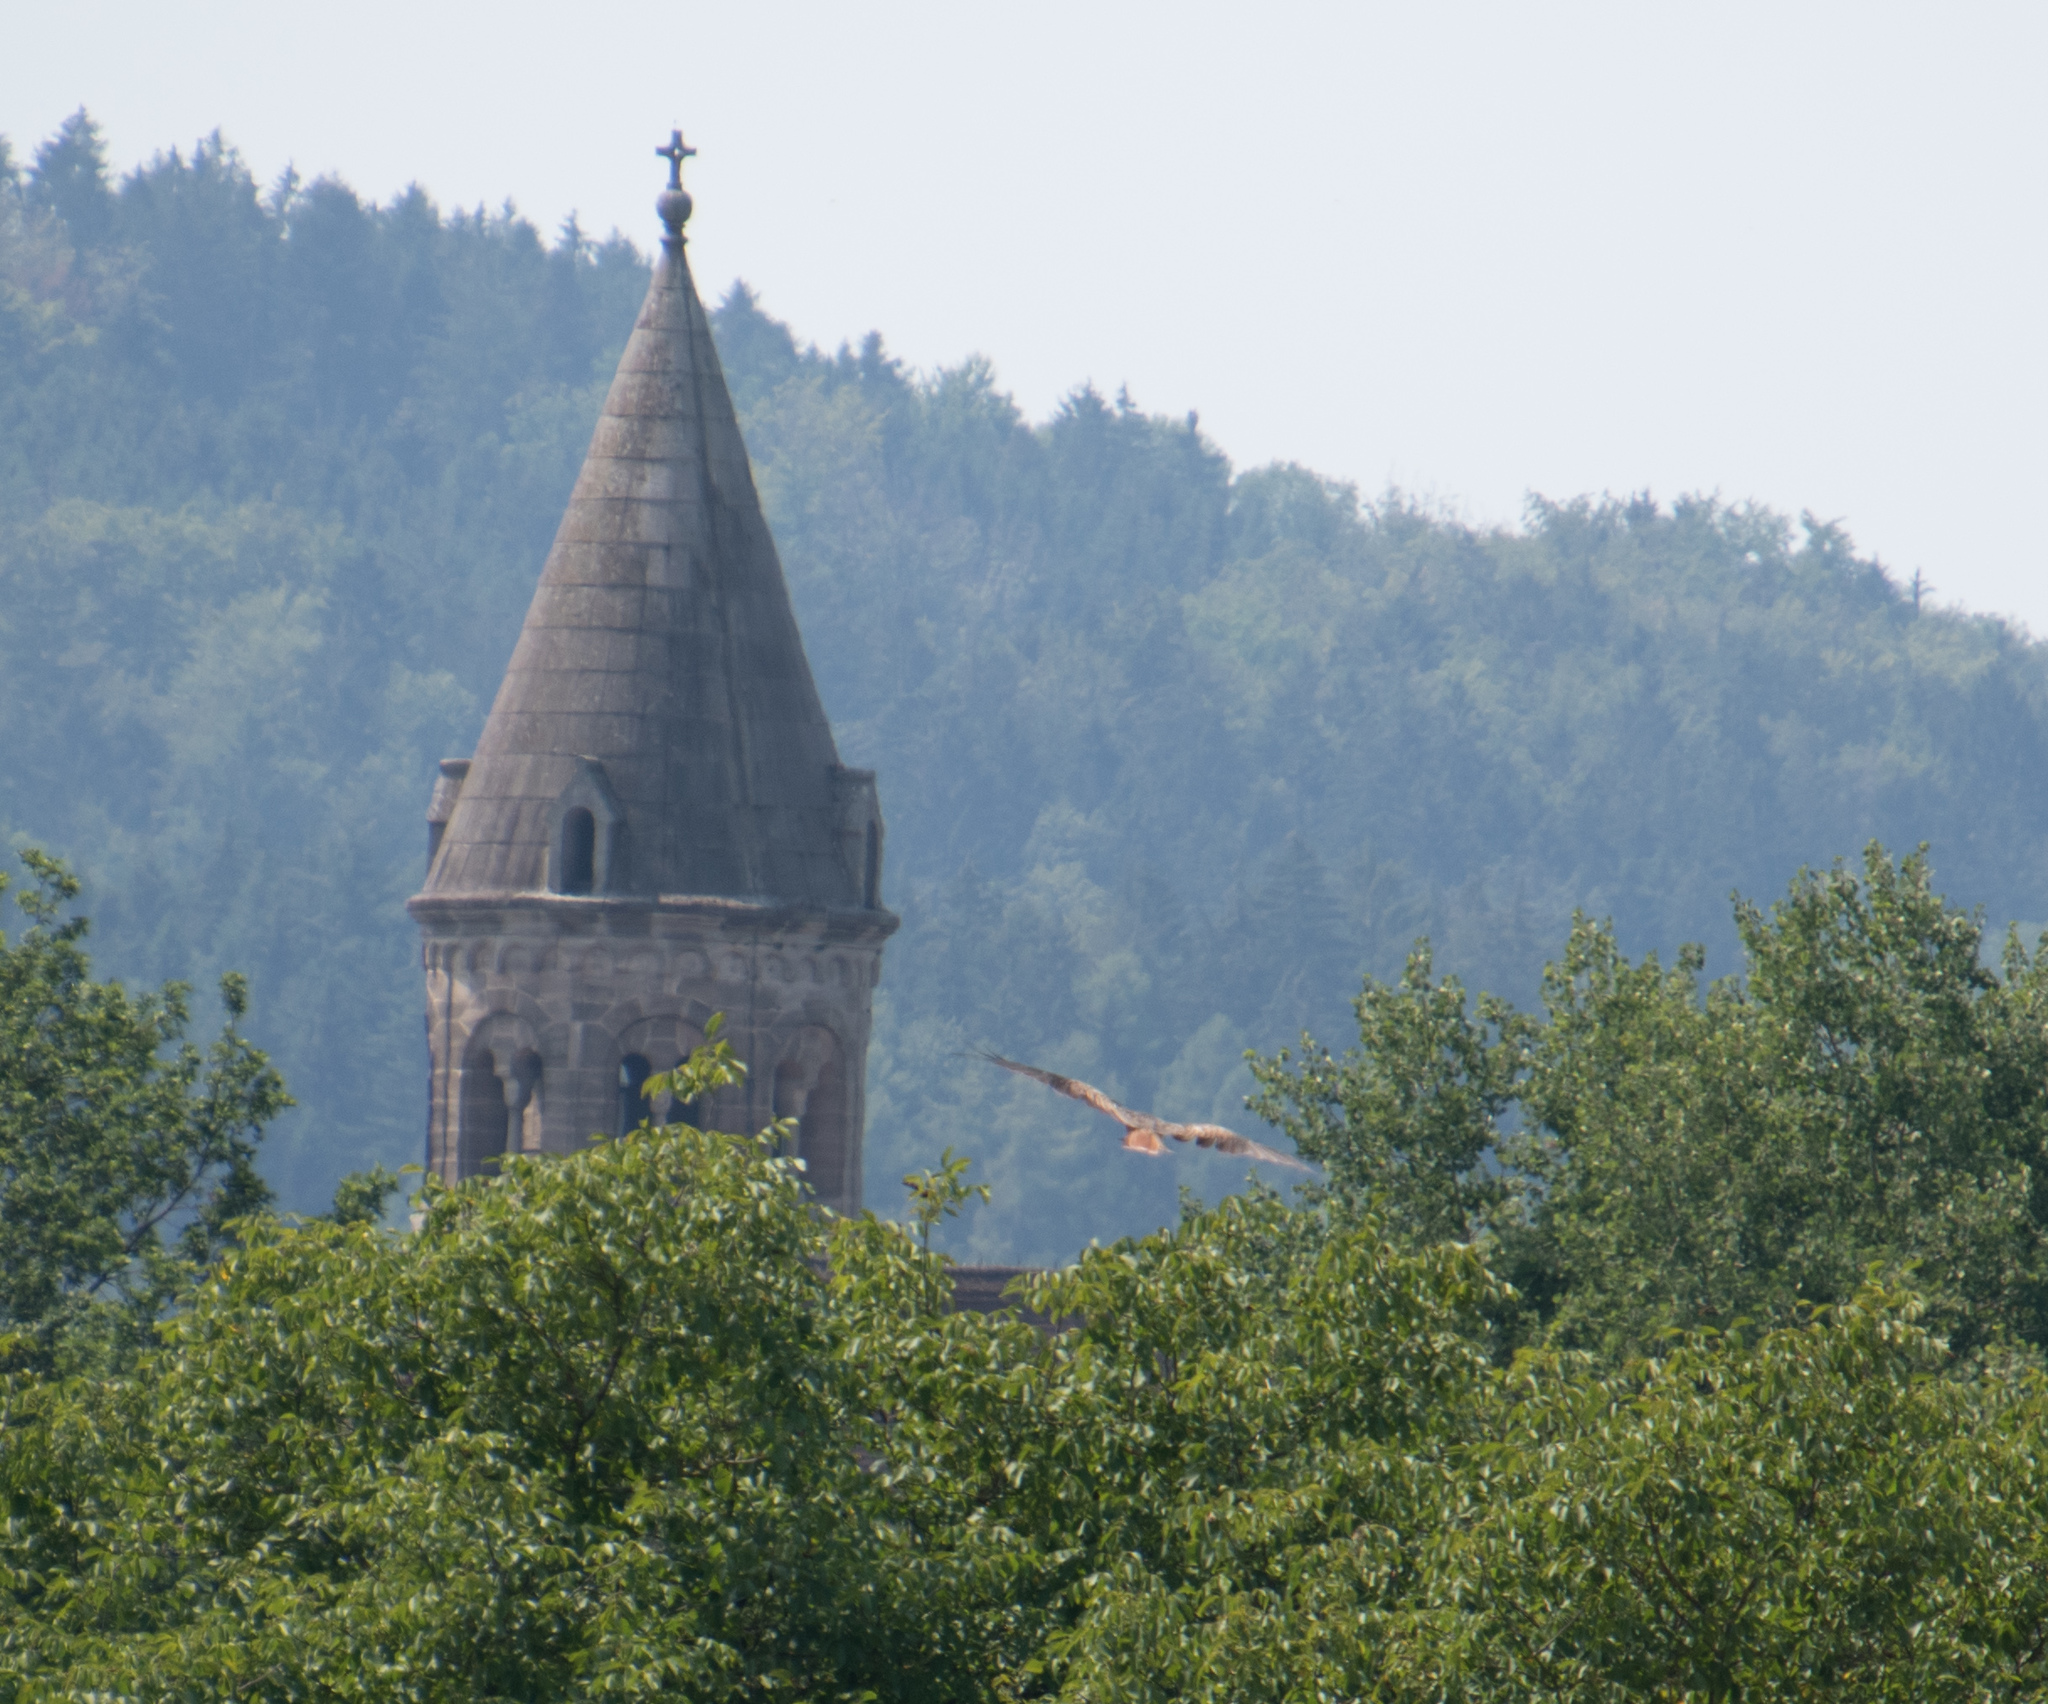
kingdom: Animalia
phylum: Chordata
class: Aves
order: Accipitriformes
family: Accipitridae
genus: Milvus
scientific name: Milvus milvus
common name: Red kite
